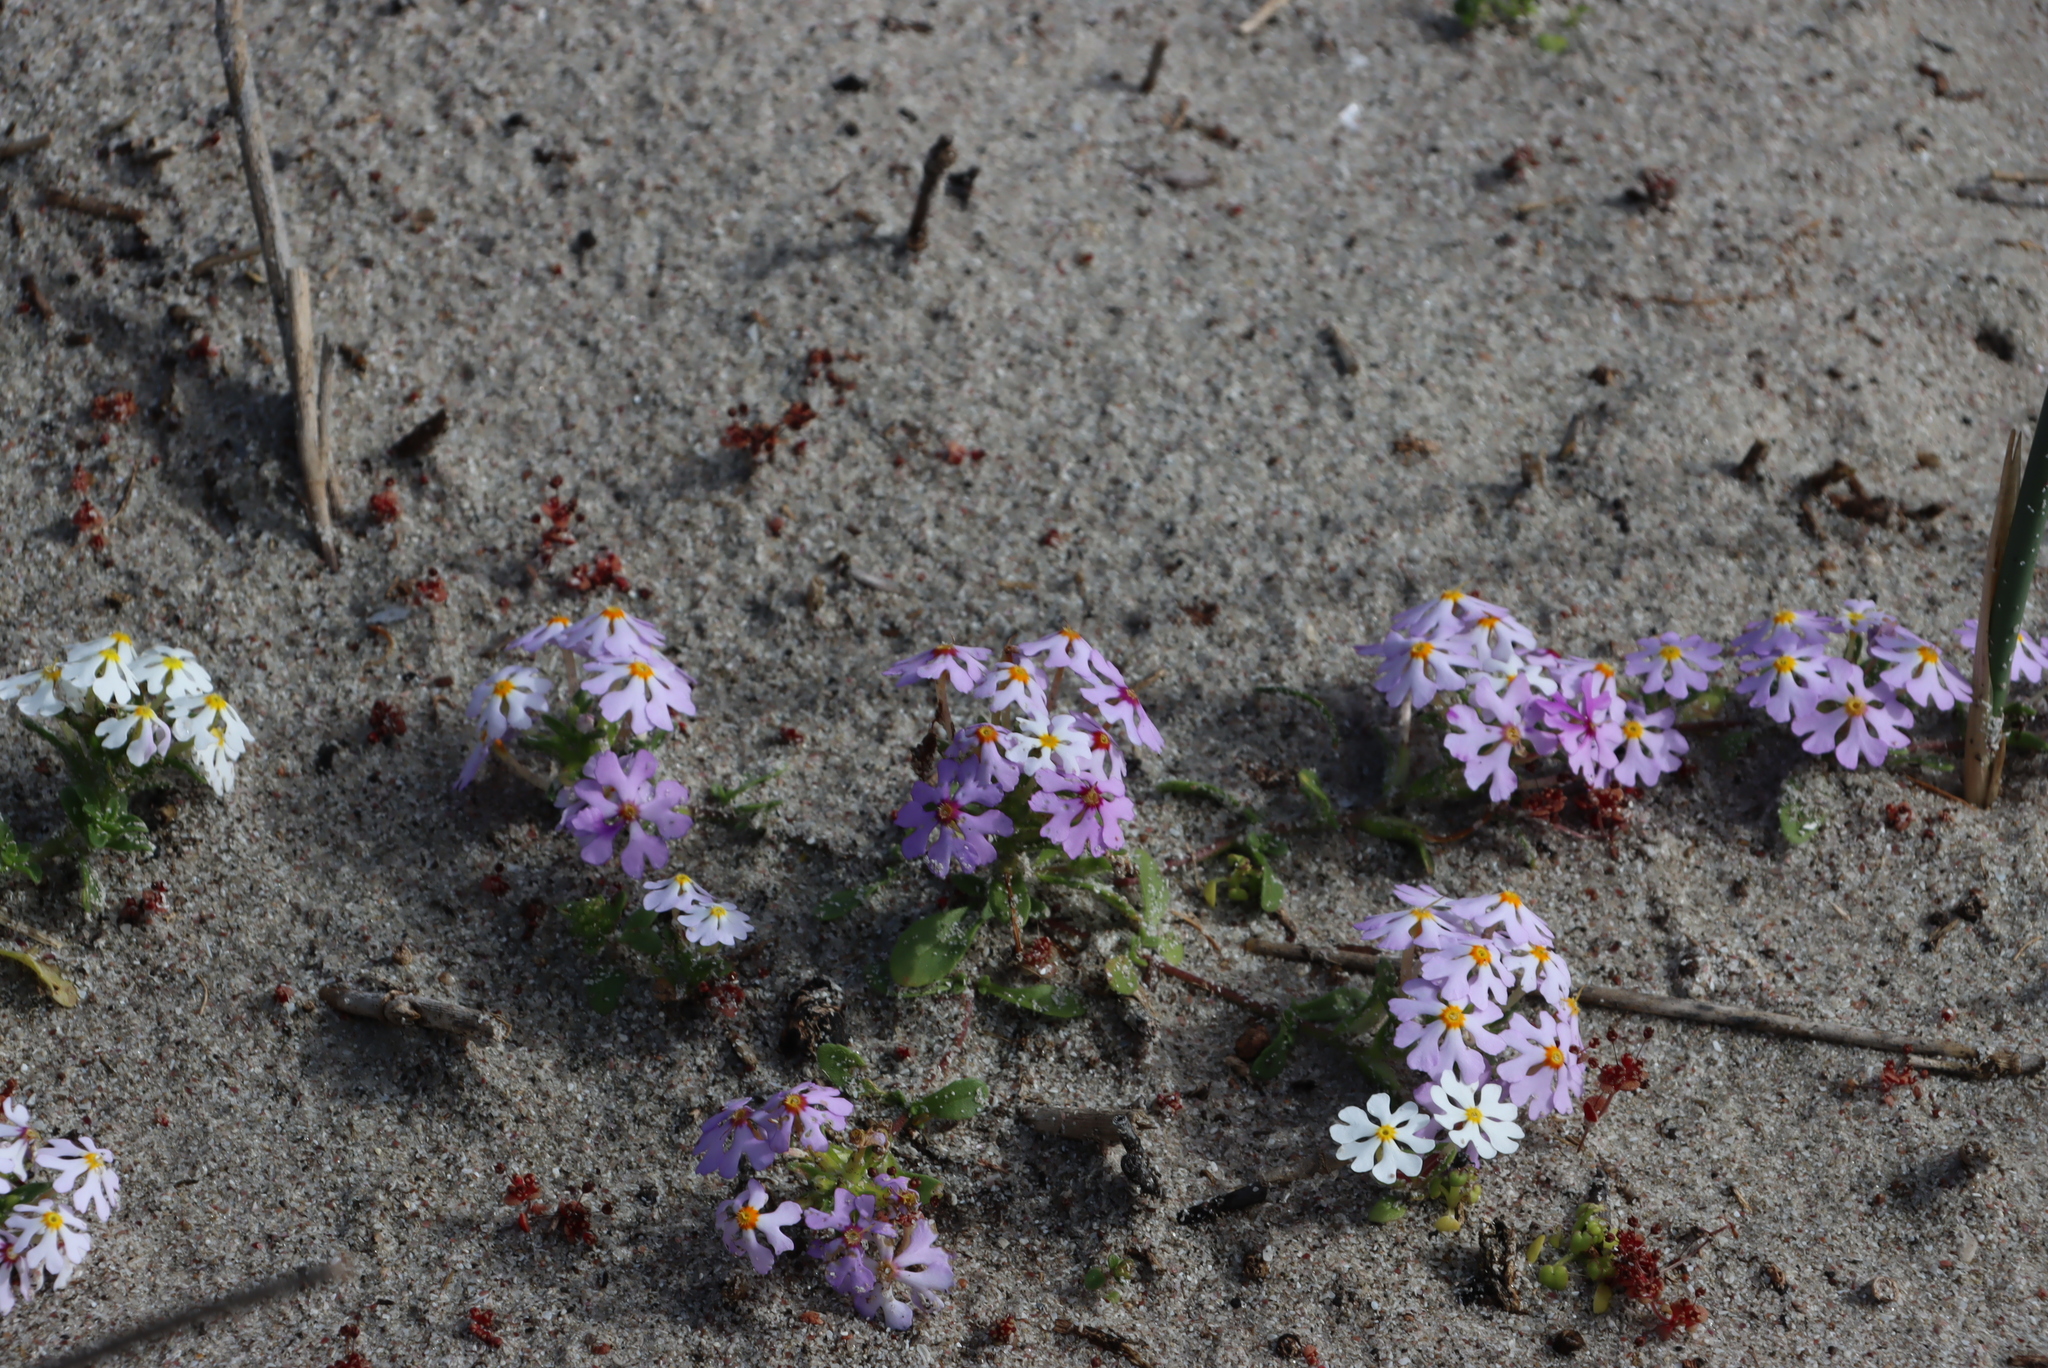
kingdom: Plantae
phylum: Tracheophyta
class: Magnoliopsida
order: Lamiales
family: Scrophulariaceae
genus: Zaluzianskya
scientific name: Zaluzianskya villosa
